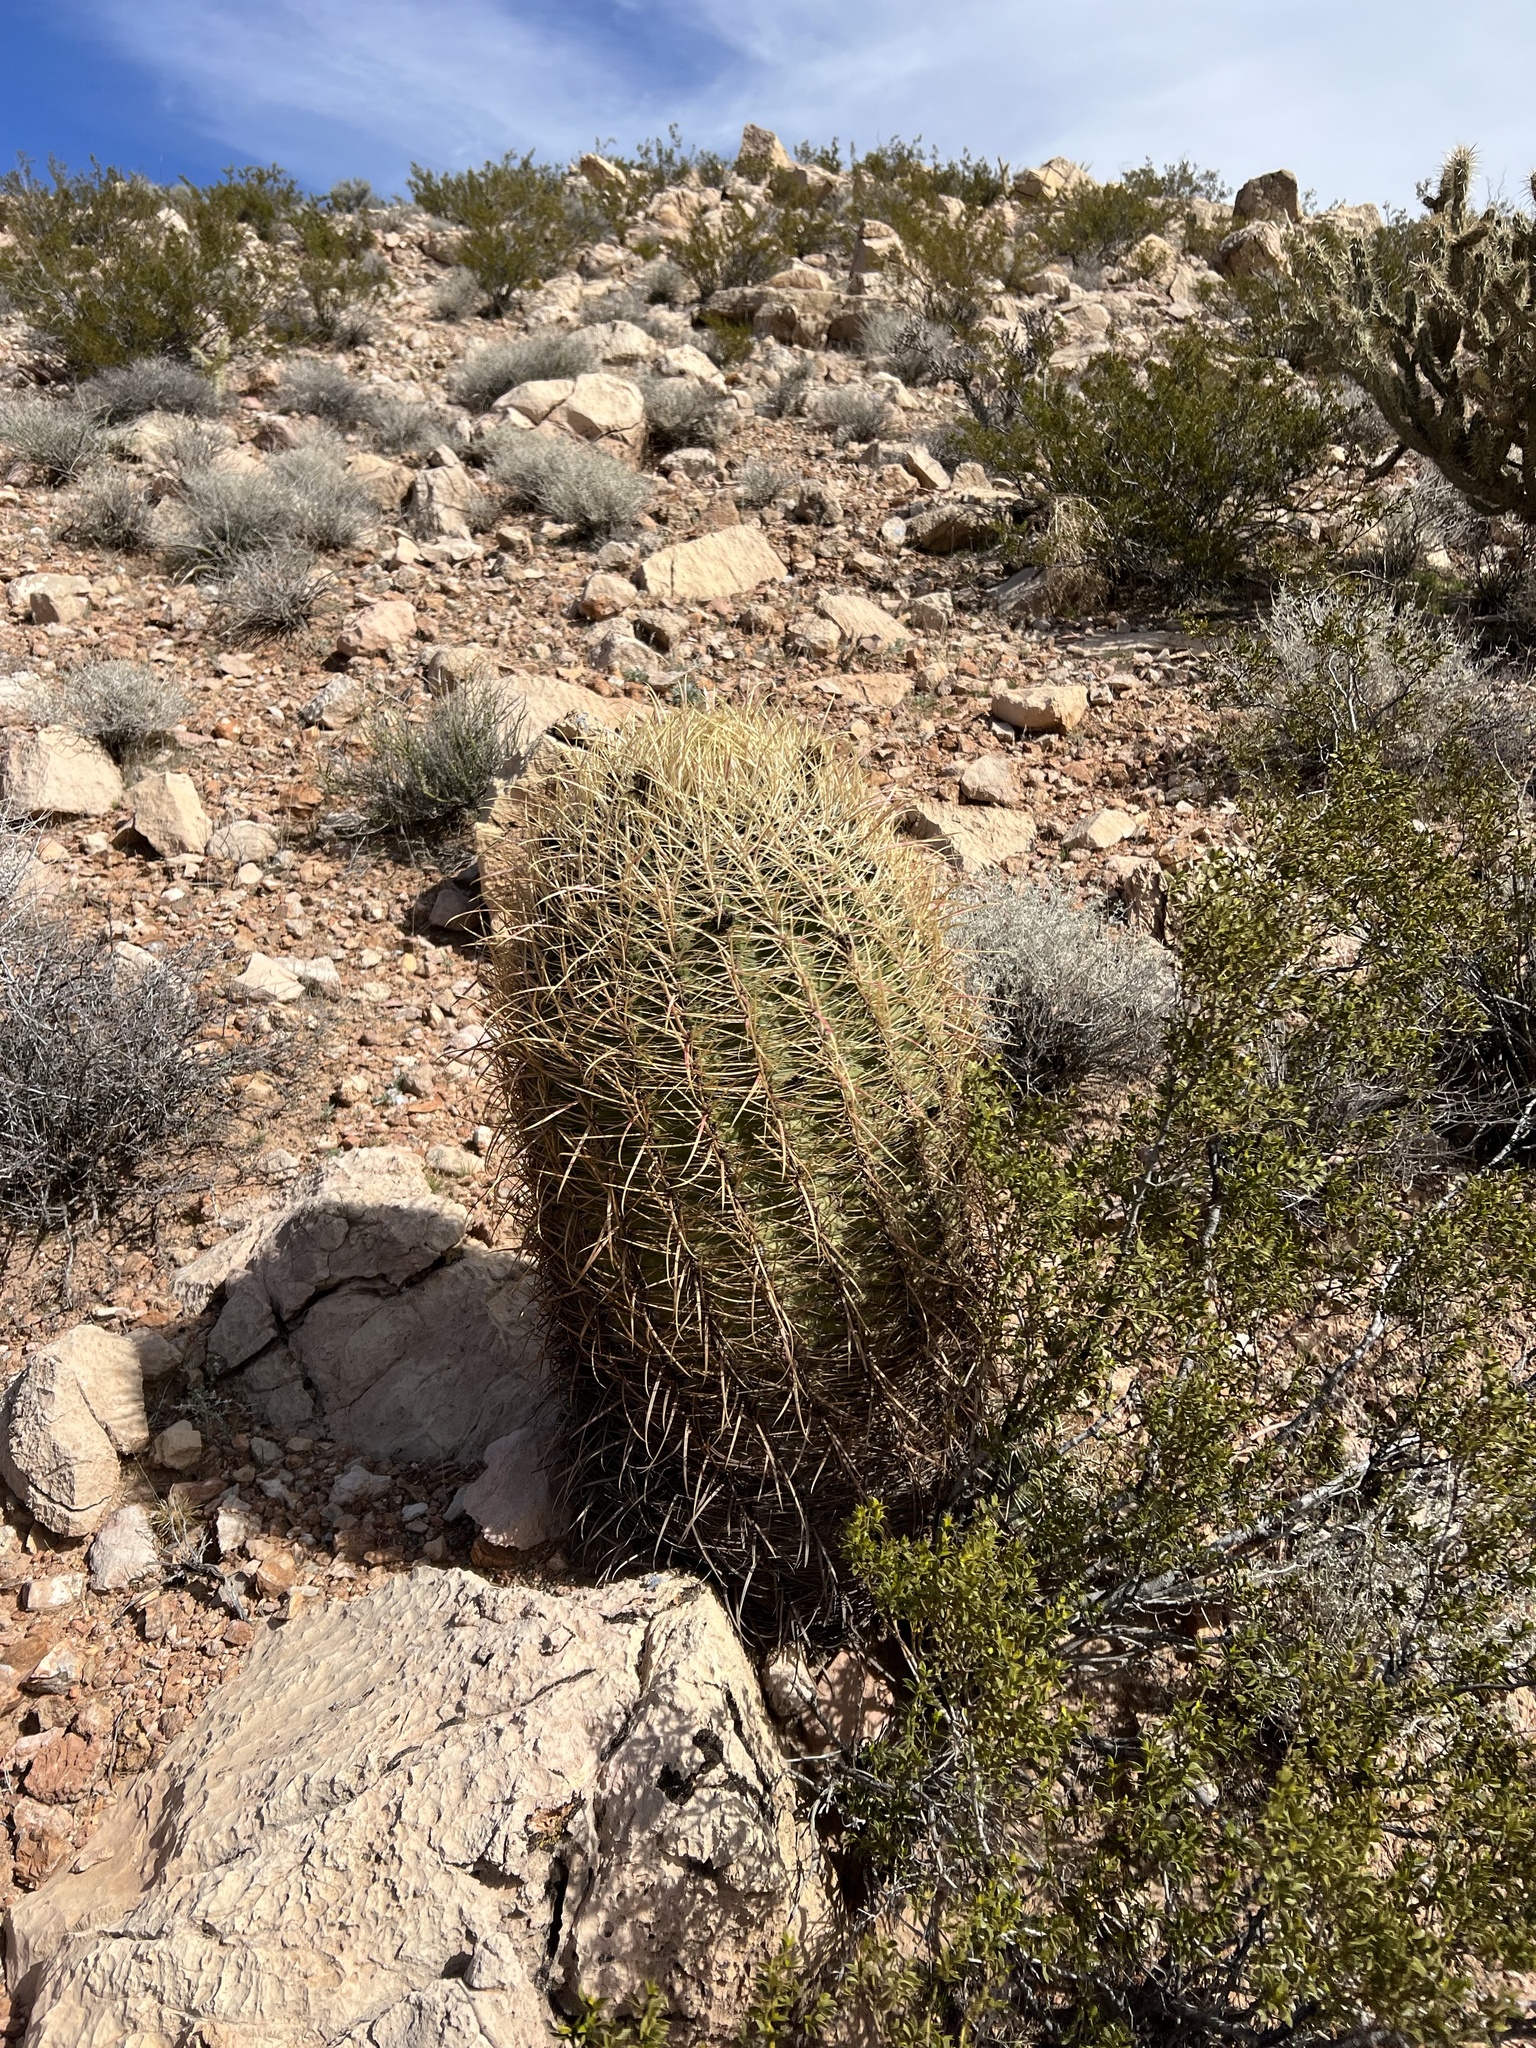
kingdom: Plantae
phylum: Tracheophyta
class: Magnoliopsida
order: Caryophyllales
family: Cactaceae
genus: Ferocactus
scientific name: Ferocactus cylindraceus
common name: California barrel cactus
